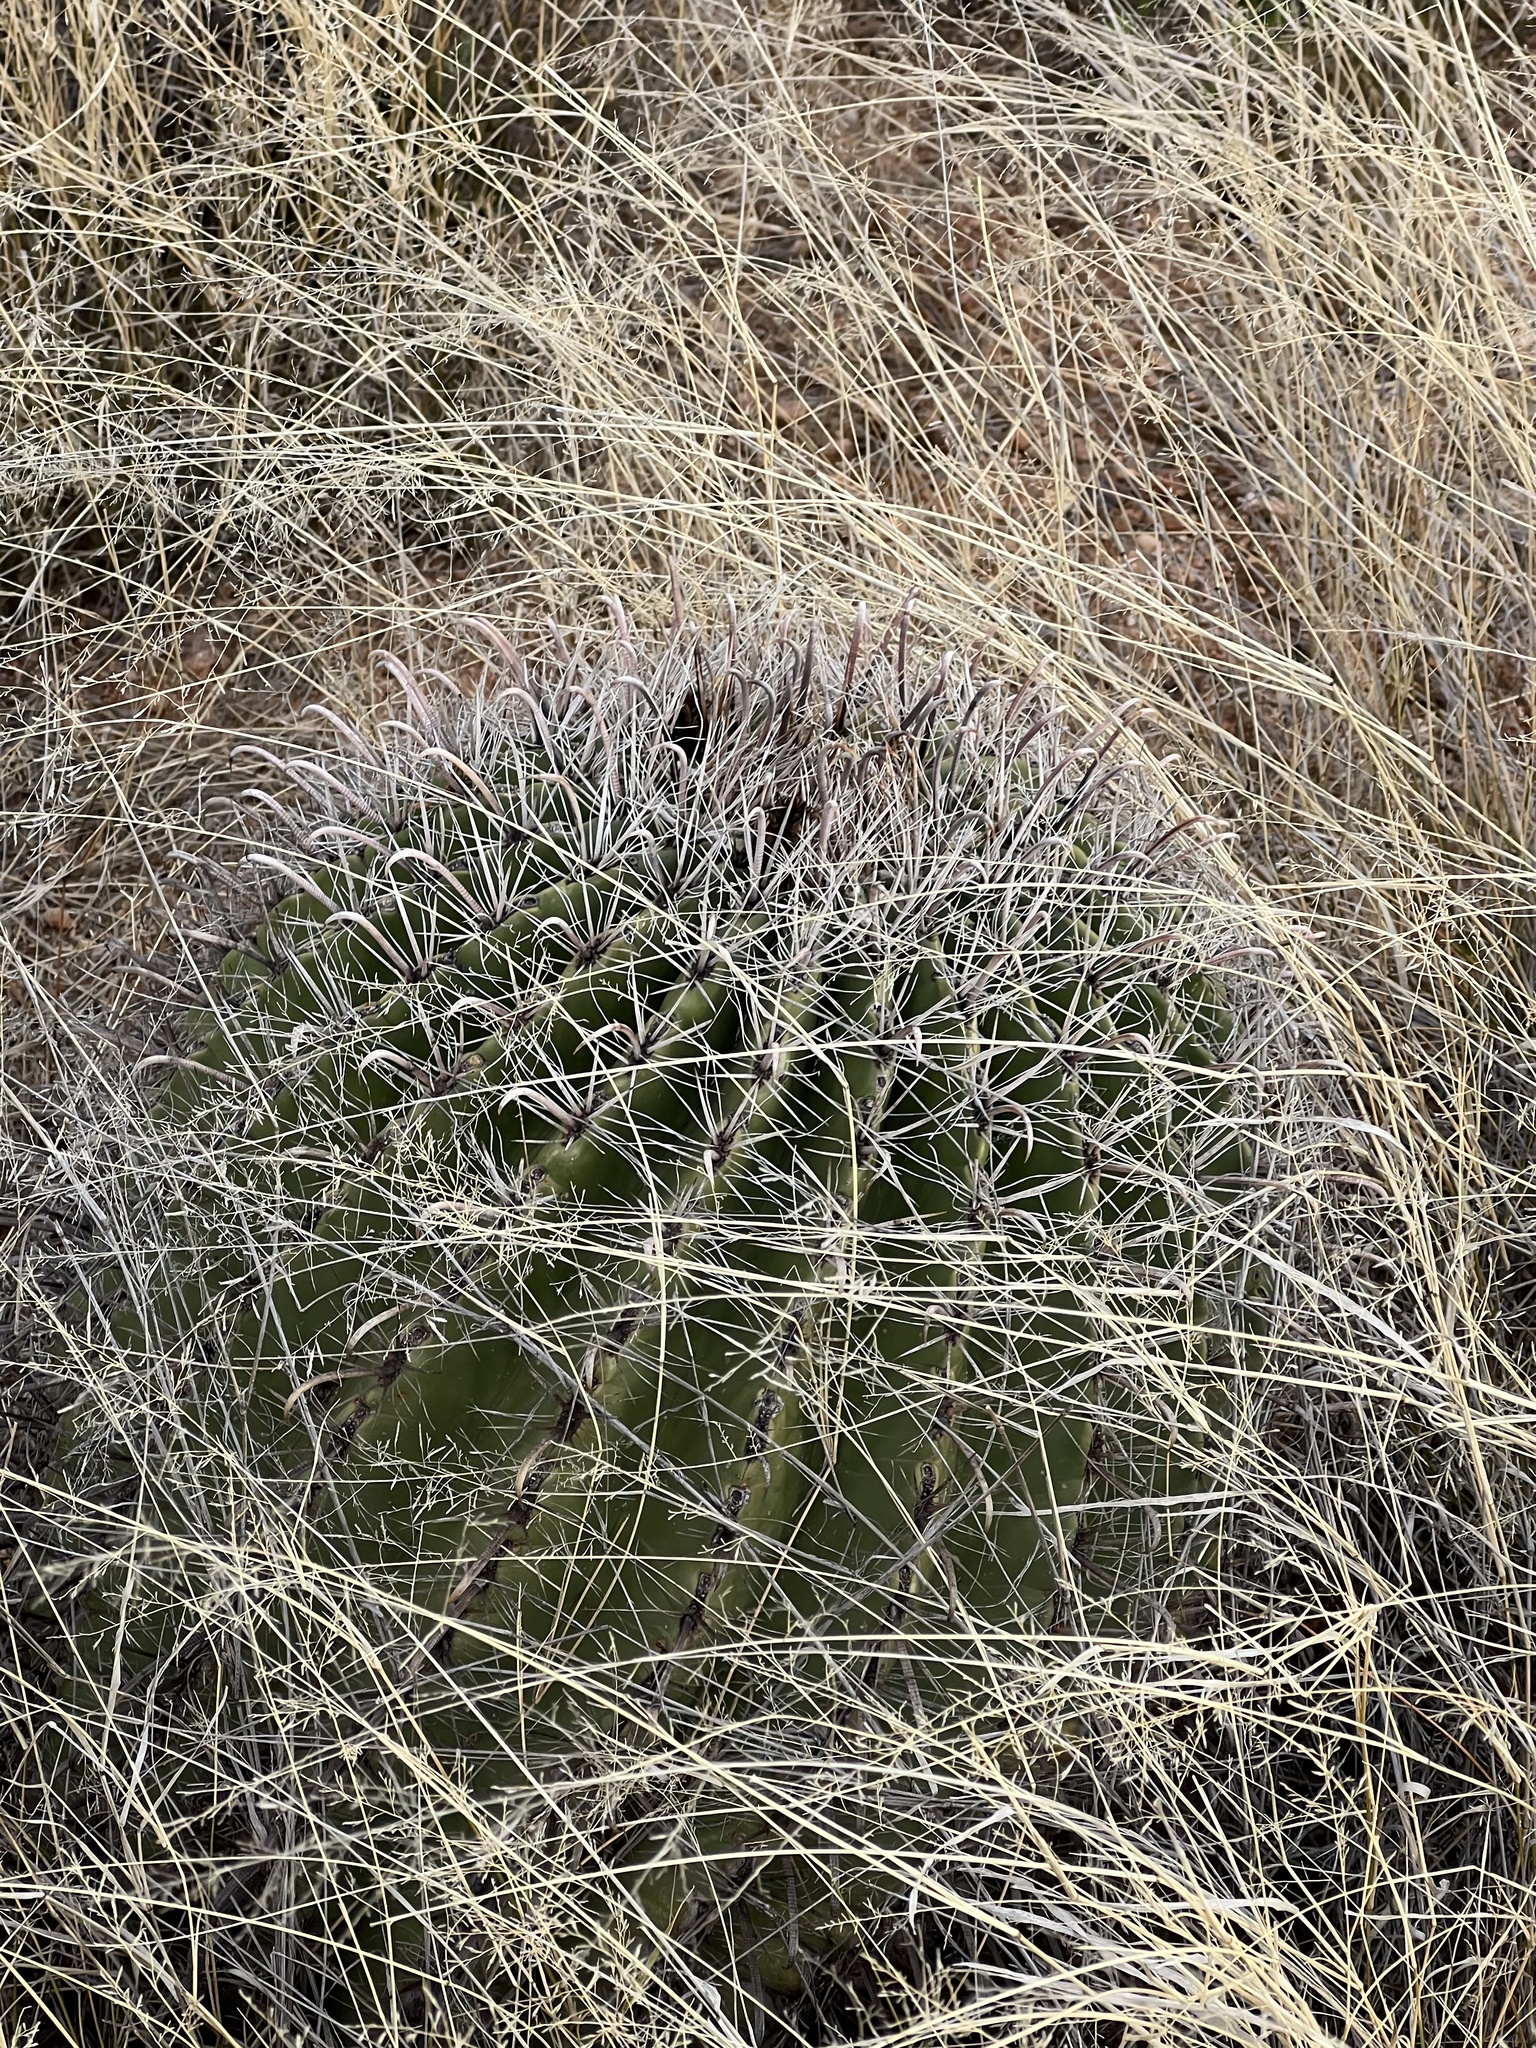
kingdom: Plantae
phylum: Tracheophyta
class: Magnoliopsida
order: Caryophyllales
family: Cactaceae
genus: Ferocactus
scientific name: Ferocactus wislizeni
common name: Candy barrel cactus
